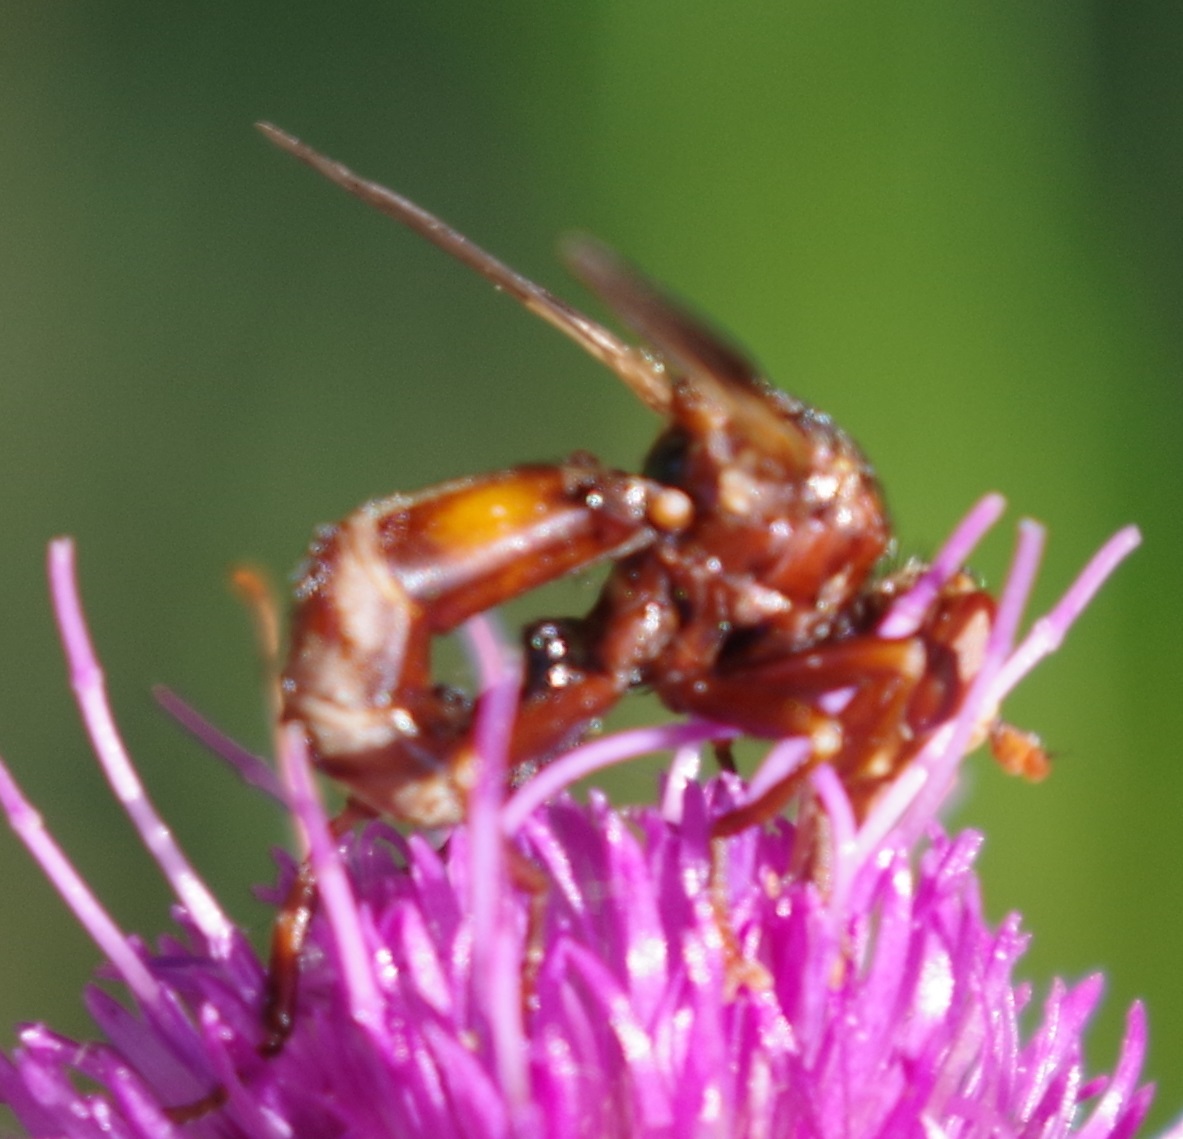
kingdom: Animalia
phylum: Arthropoda
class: Insecta
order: Diptera
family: Conopidae
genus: Sicus
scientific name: Sicus ferrugineus
